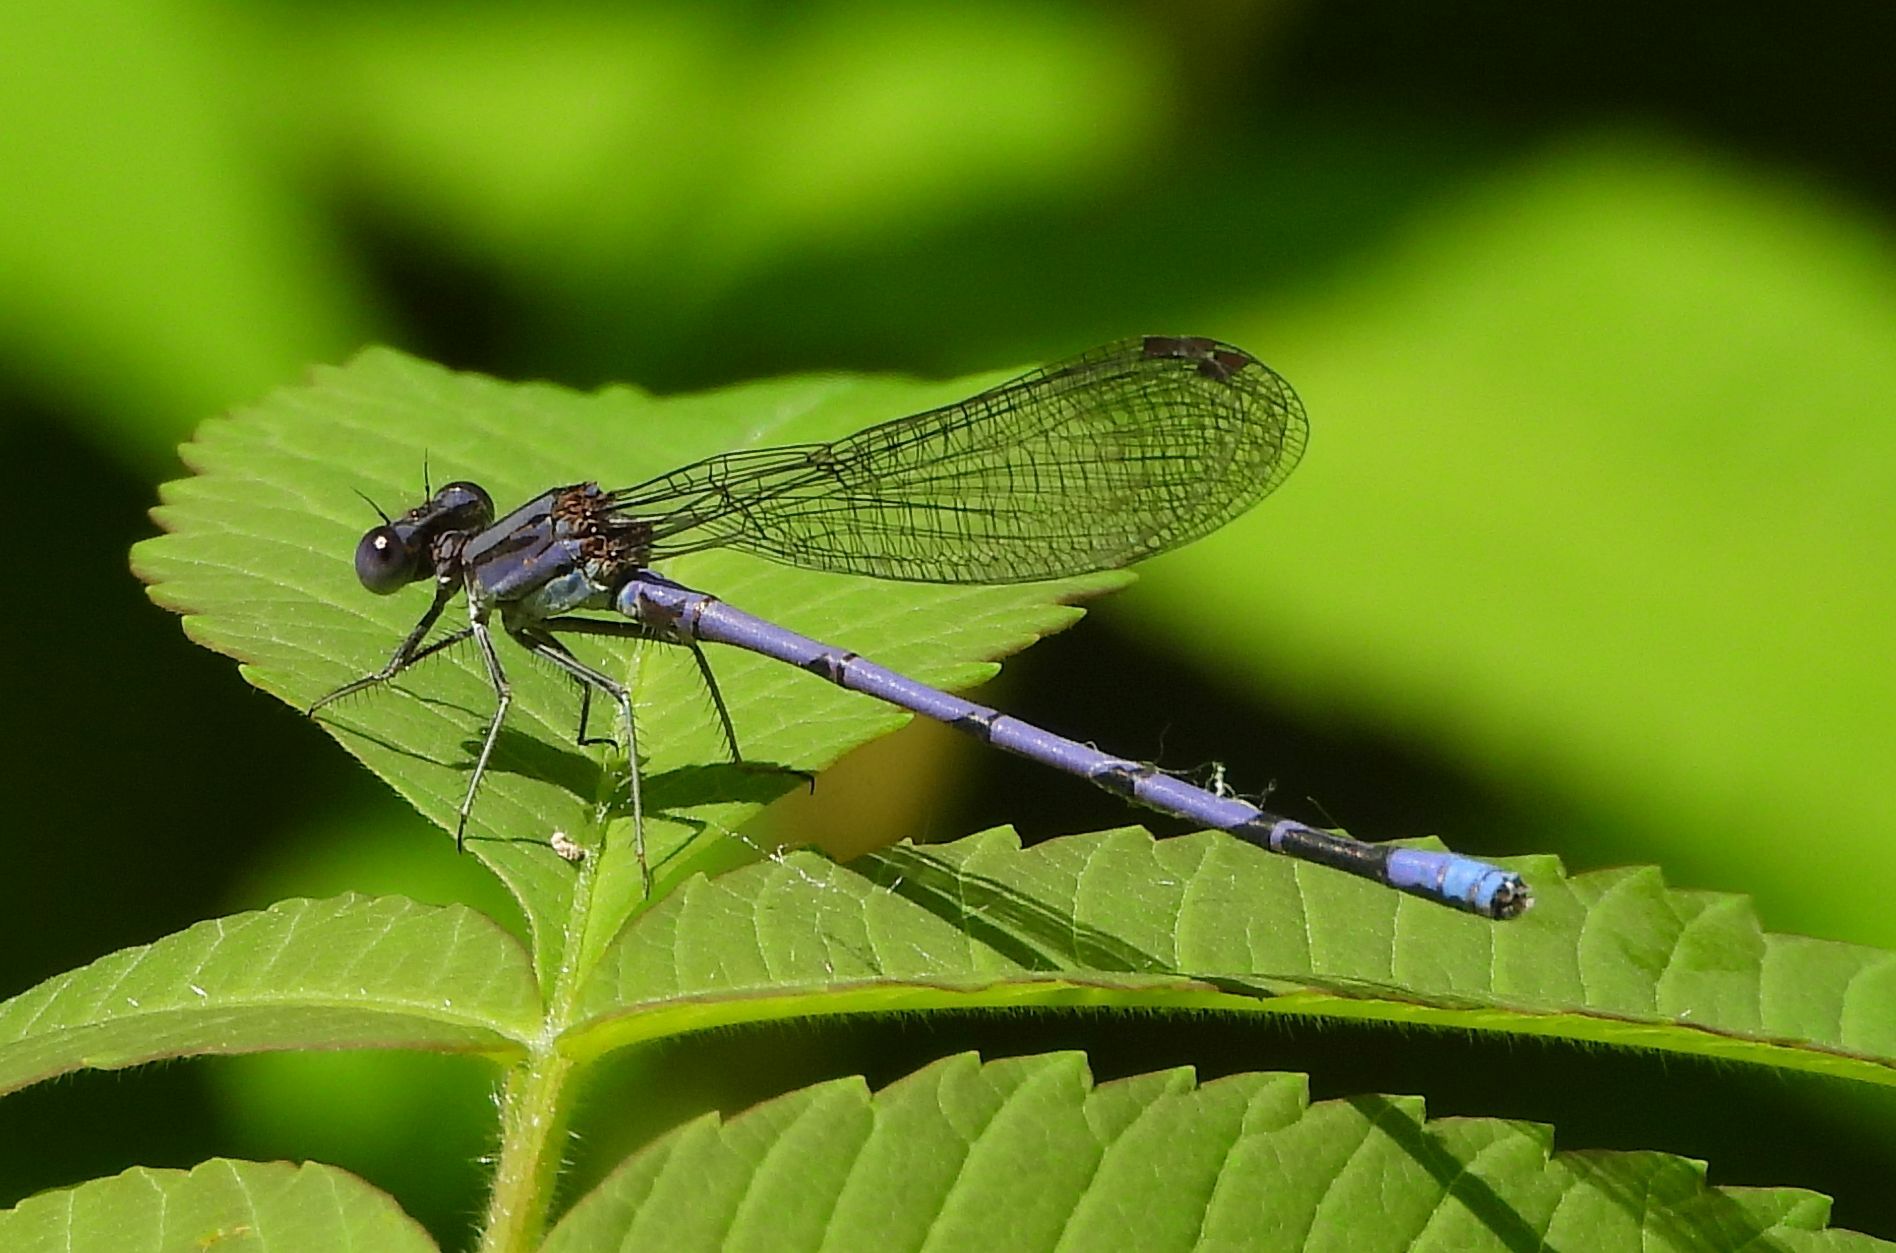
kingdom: Animalia
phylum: Arthropoda
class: Insecta
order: Odonata
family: Coenagrionidae
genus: Argia
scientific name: Argia fumipennis
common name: Variable dancer
